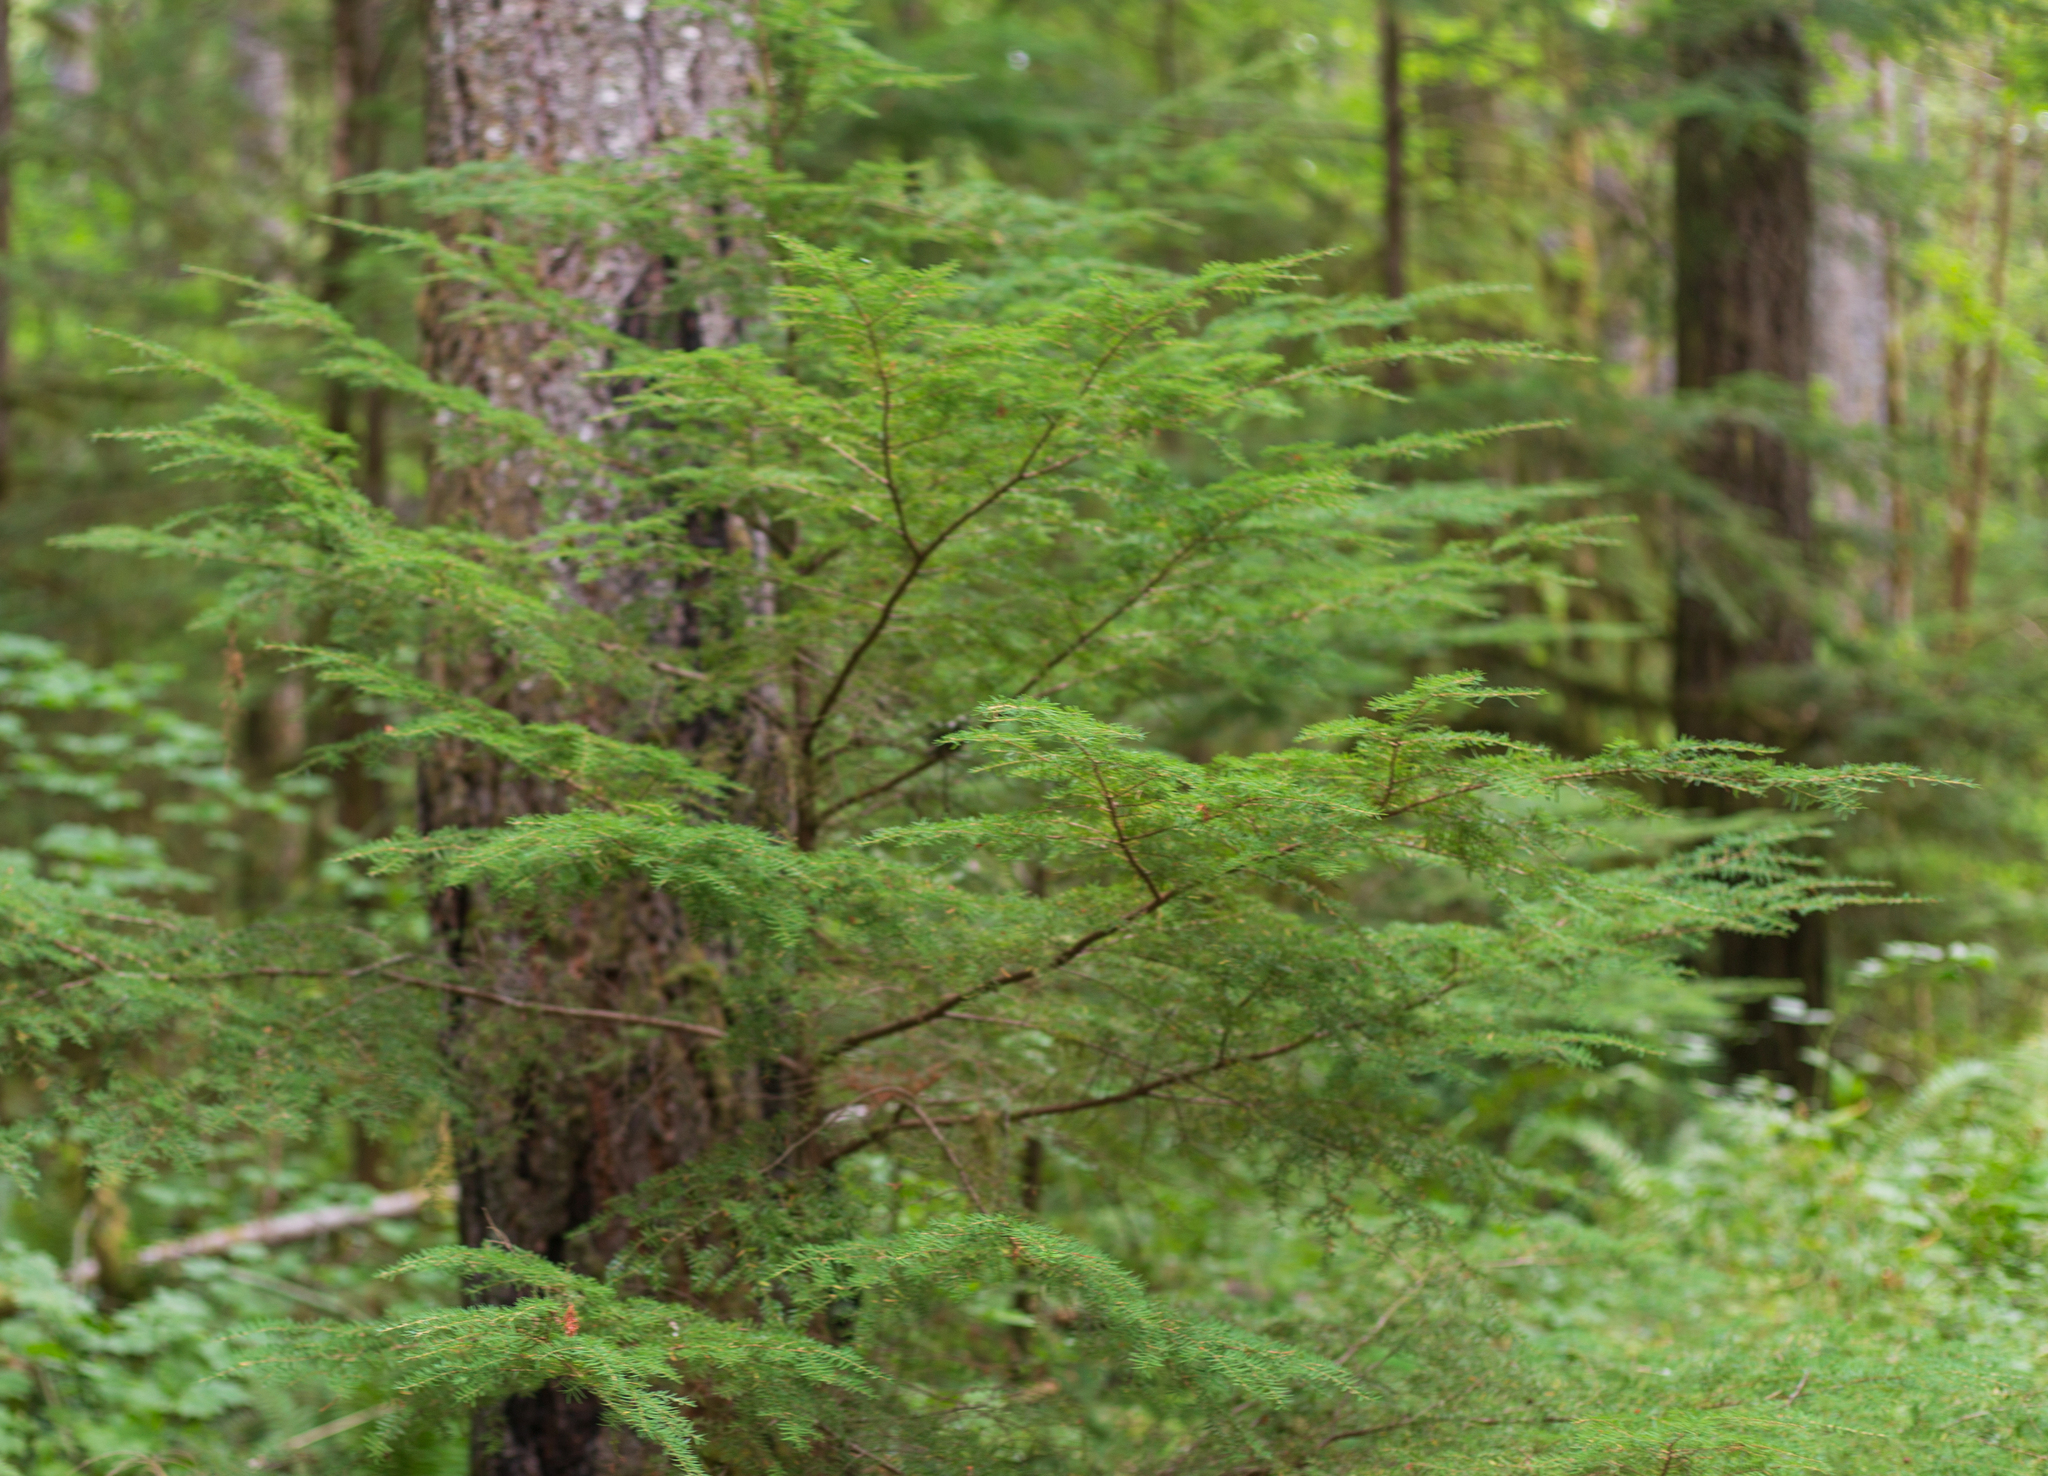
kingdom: Plantae
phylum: Tracheophyta
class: Pinopsida
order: Pinales
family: Pinaceae
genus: Tsuga
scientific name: Tsuga heterophylla
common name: Western hemlock
